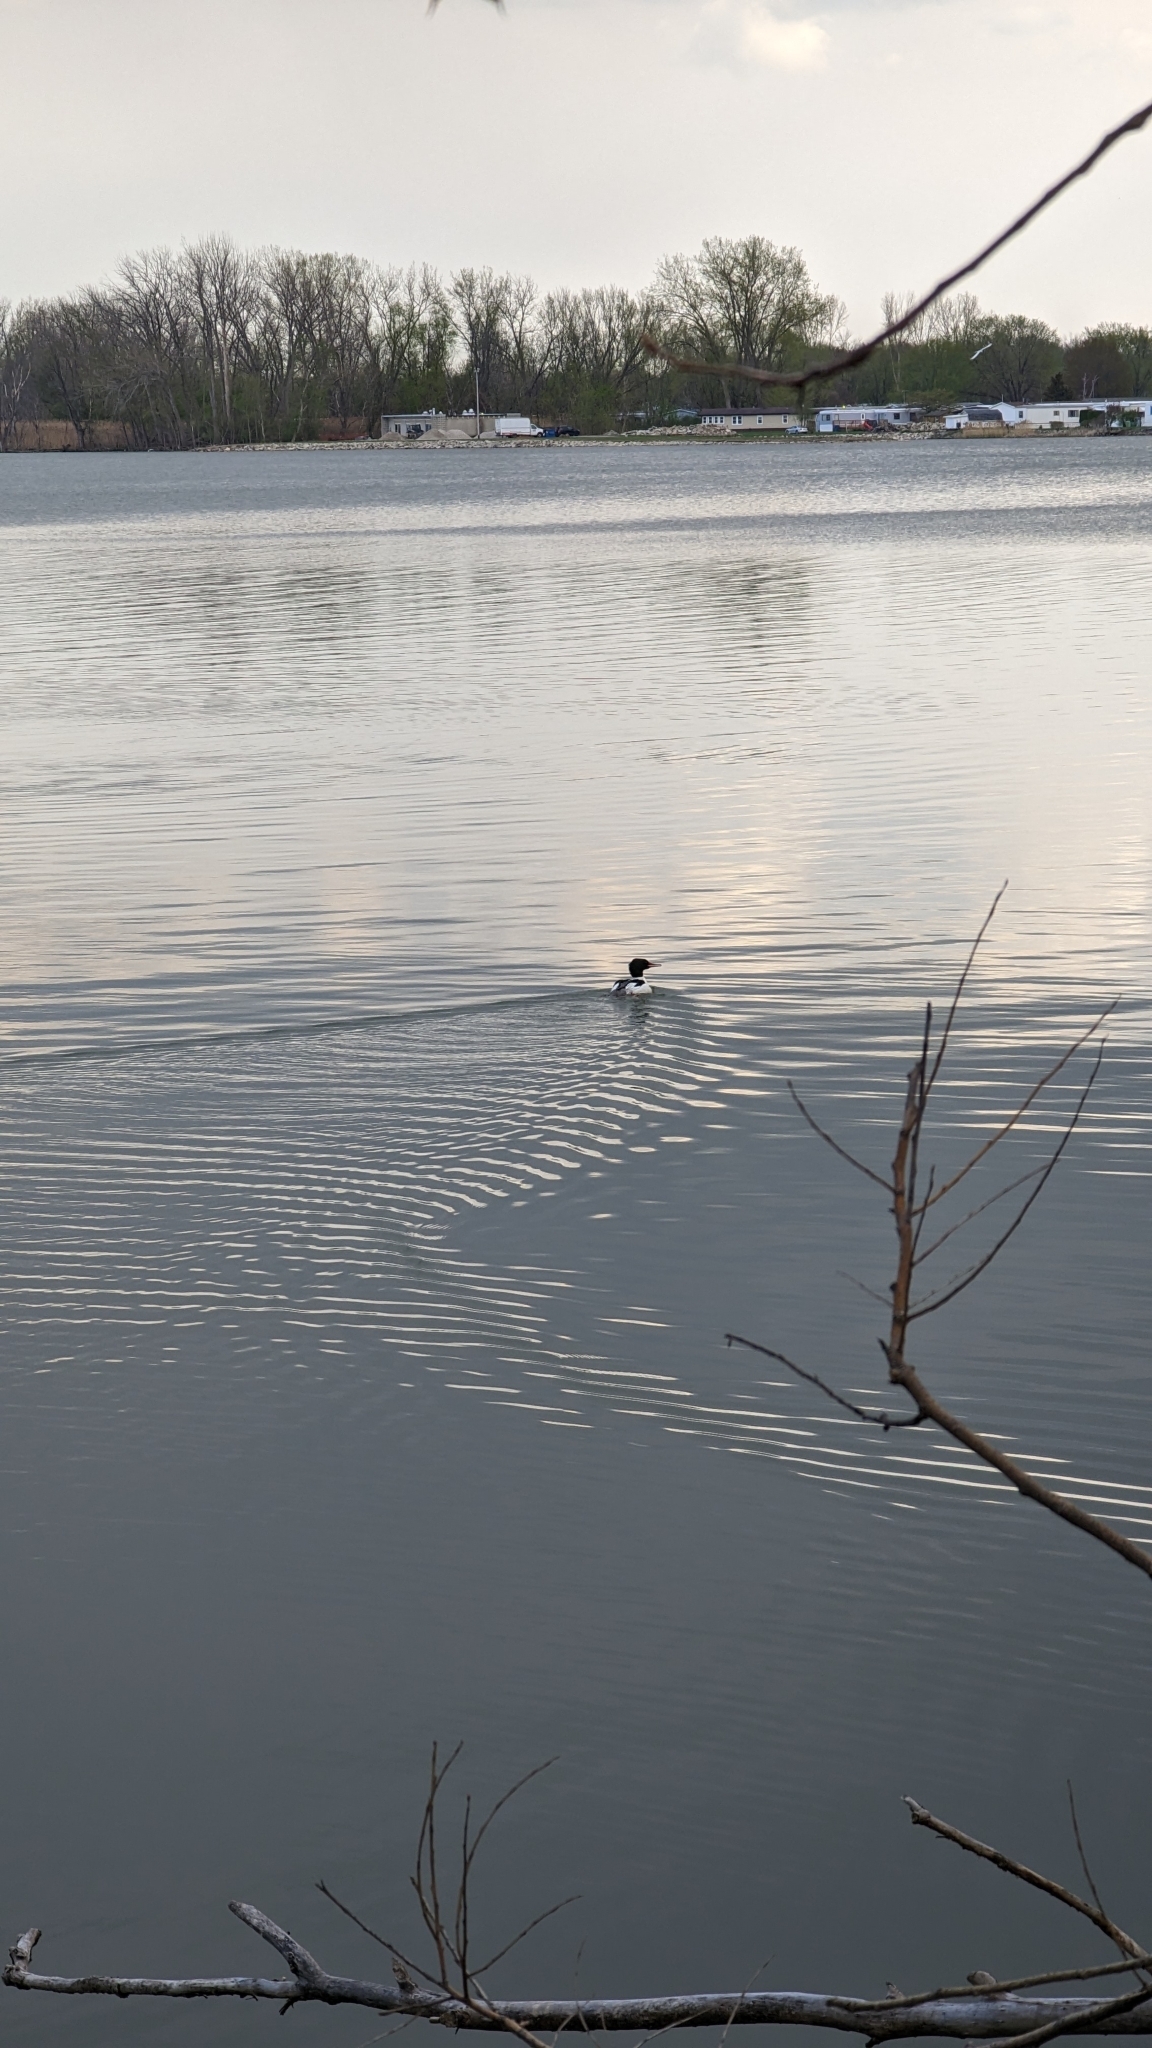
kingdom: Animalia
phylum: Chordata
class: Aves
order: Anseriformes
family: Anatidae
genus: Mergus
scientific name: Mergus merganser
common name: Common merganser
